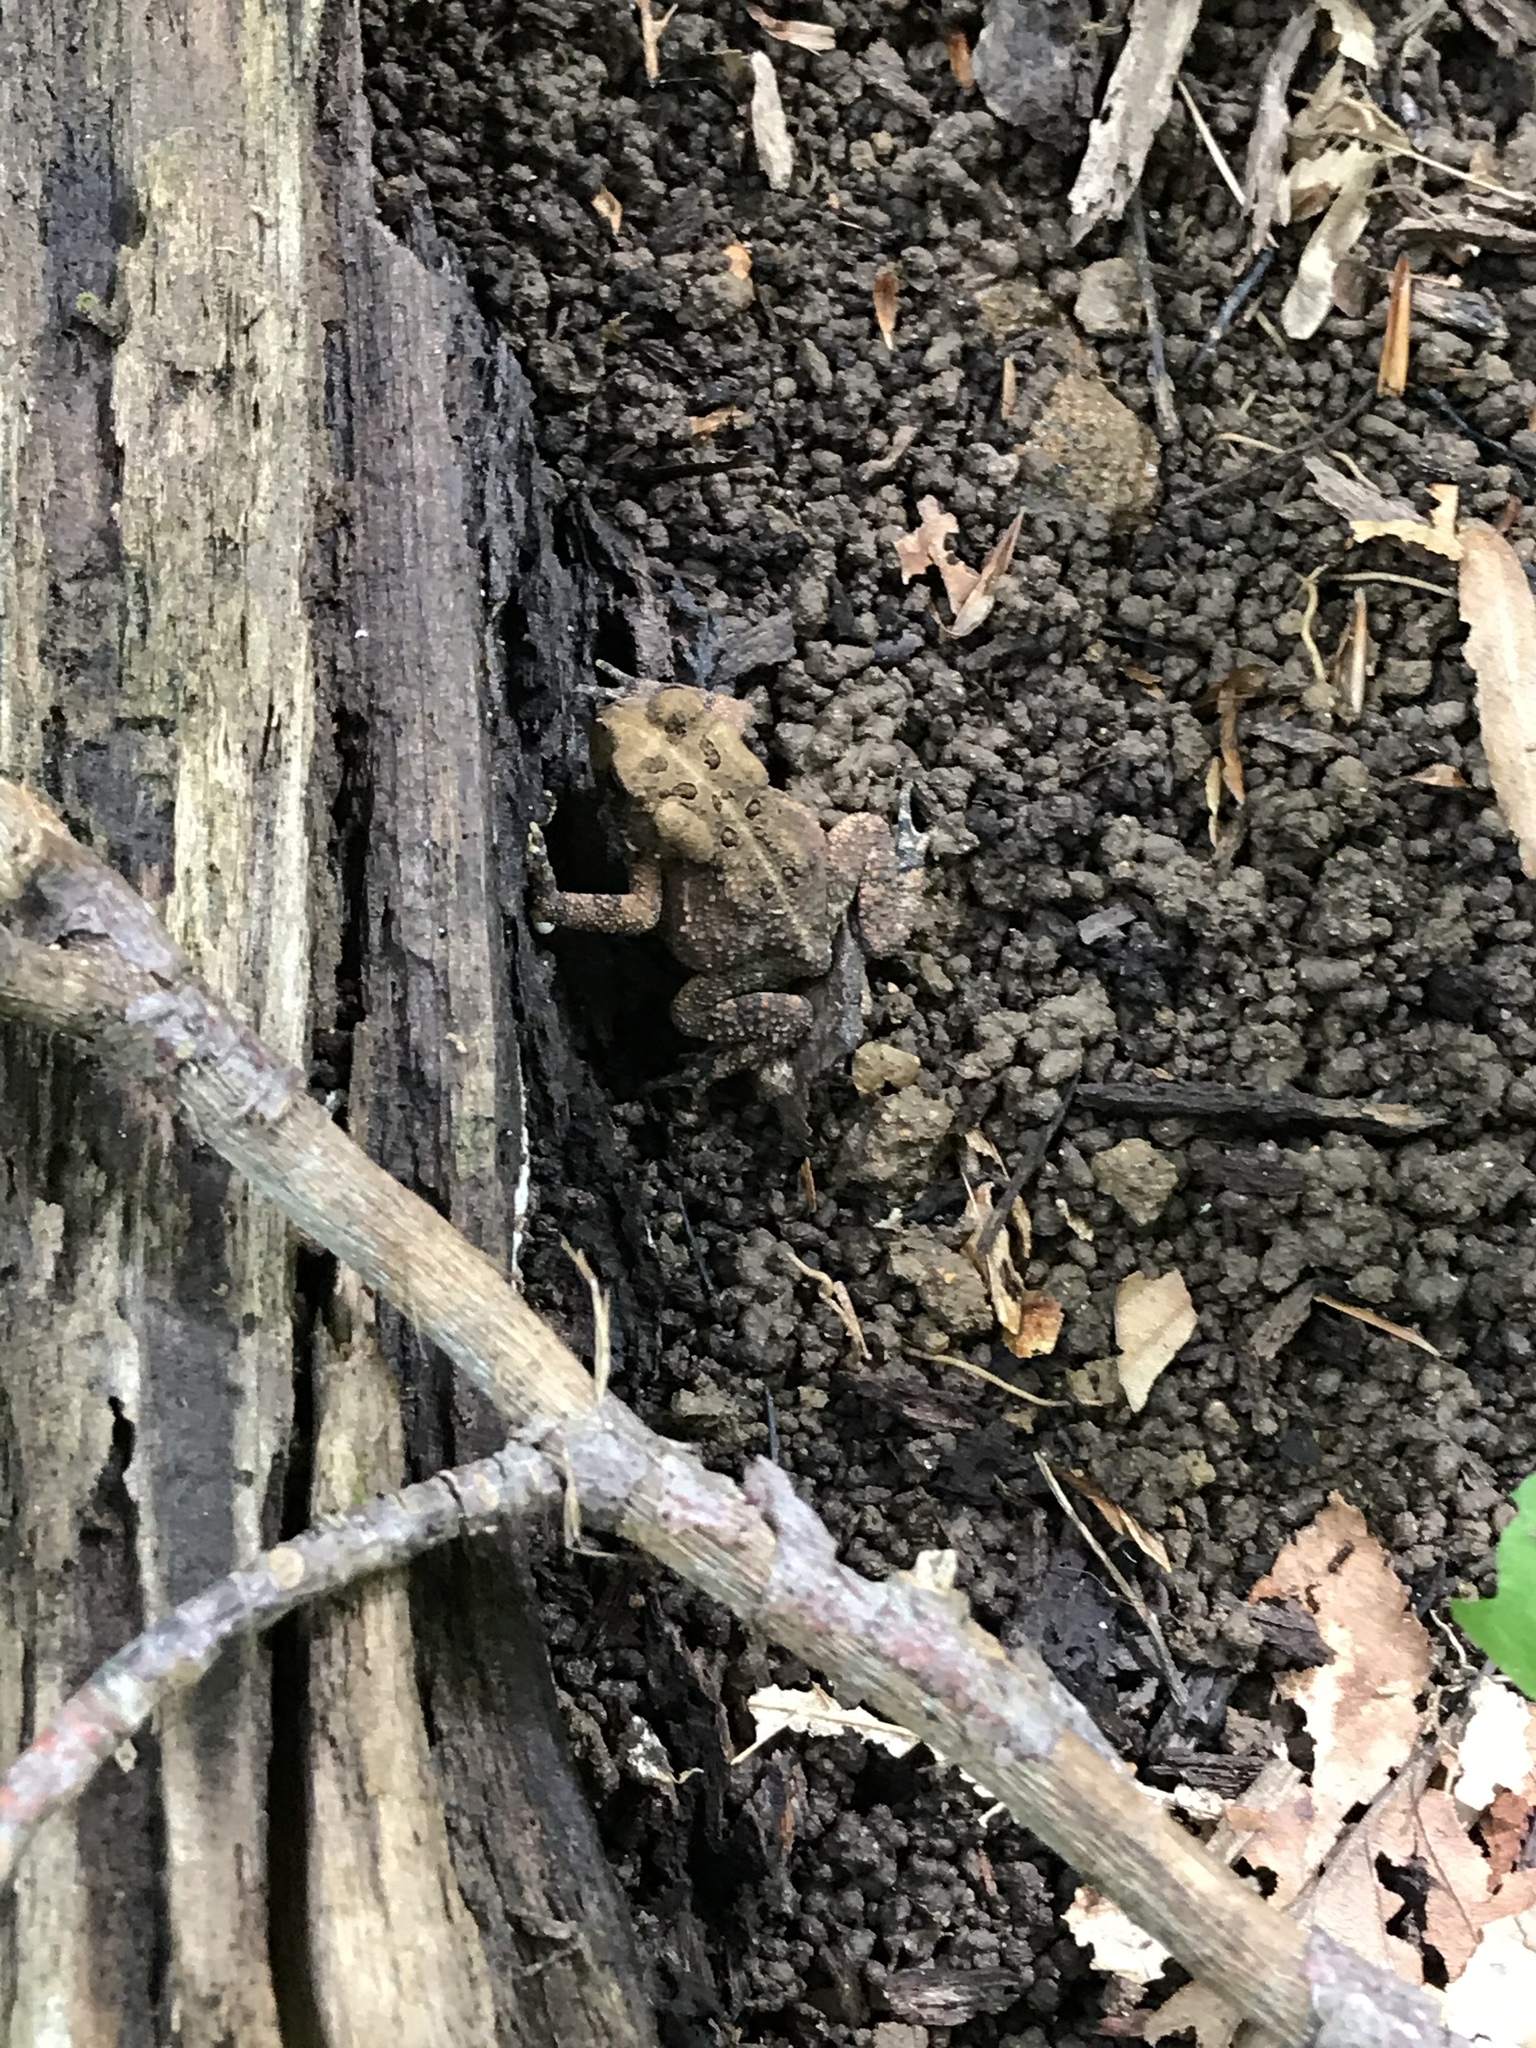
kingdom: Animalia
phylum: Chordata
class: Amphibia
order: Anura
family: Bufonidae
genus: Anaxyrus
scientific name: Anaxyrus americanus
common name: American toad
